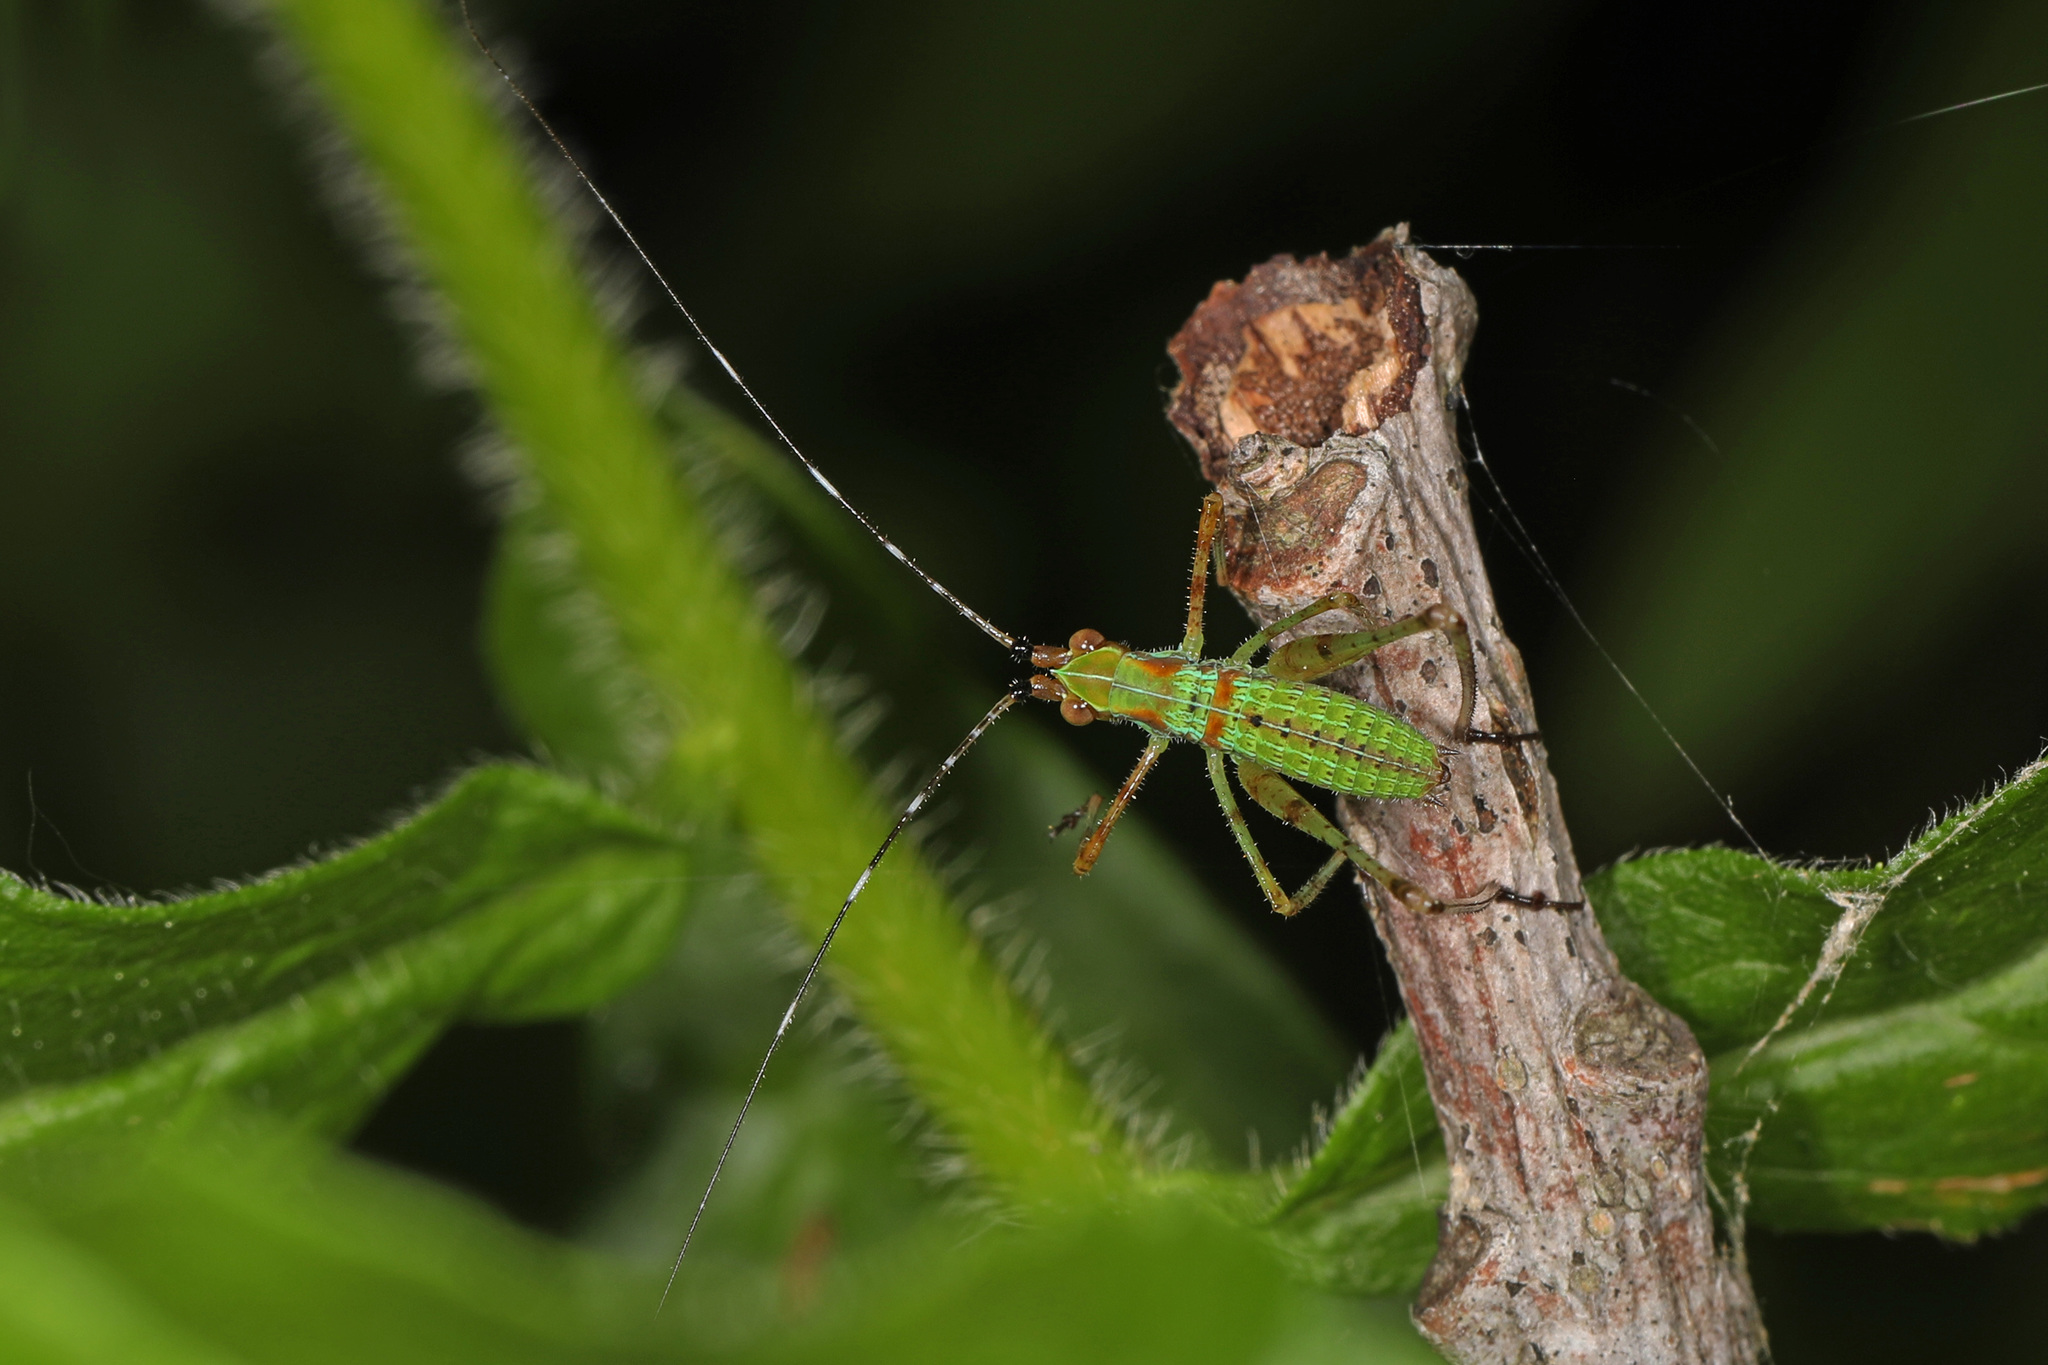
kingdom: Animalia
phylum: Arthropoda
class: Insecta
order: Orthoptera
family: Tettigoniidae
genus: Scudderia
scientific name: Scudderia
